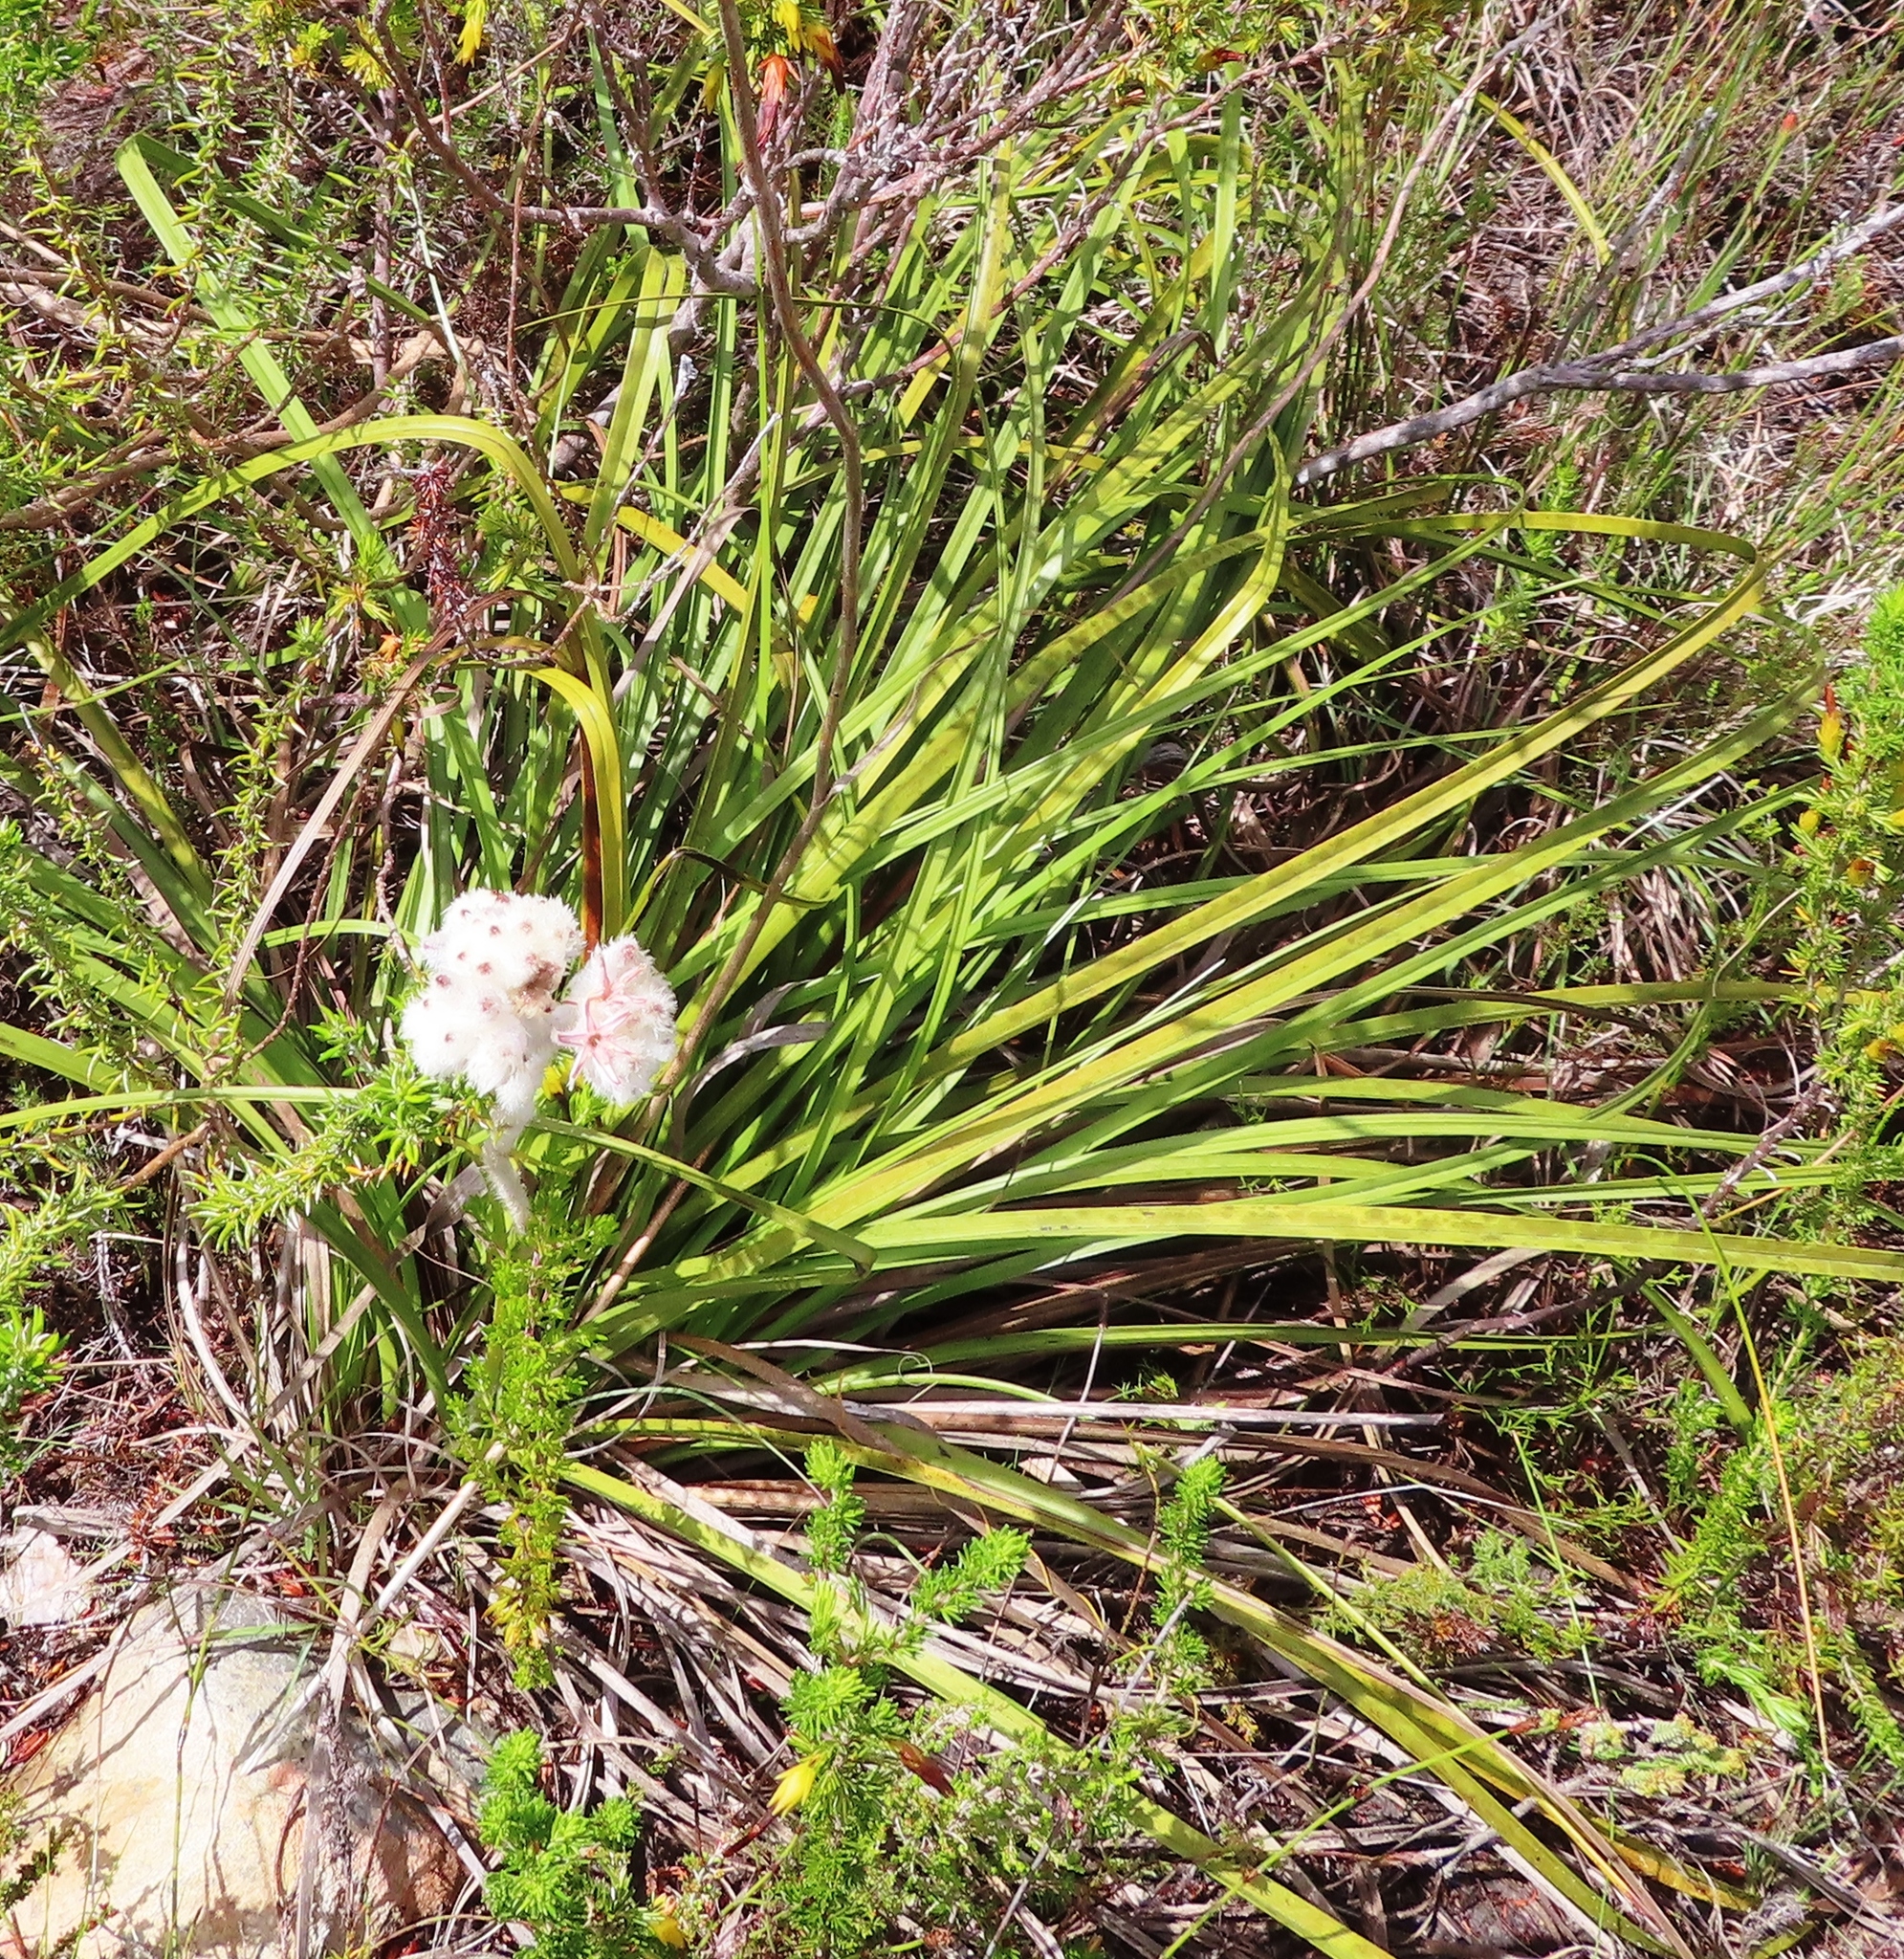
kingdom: Plantae
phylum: Tracheophyta
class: Liliopsida
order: Asparagales
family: Lanariaceae
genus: Lanaria
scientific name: Lanaria lanata
